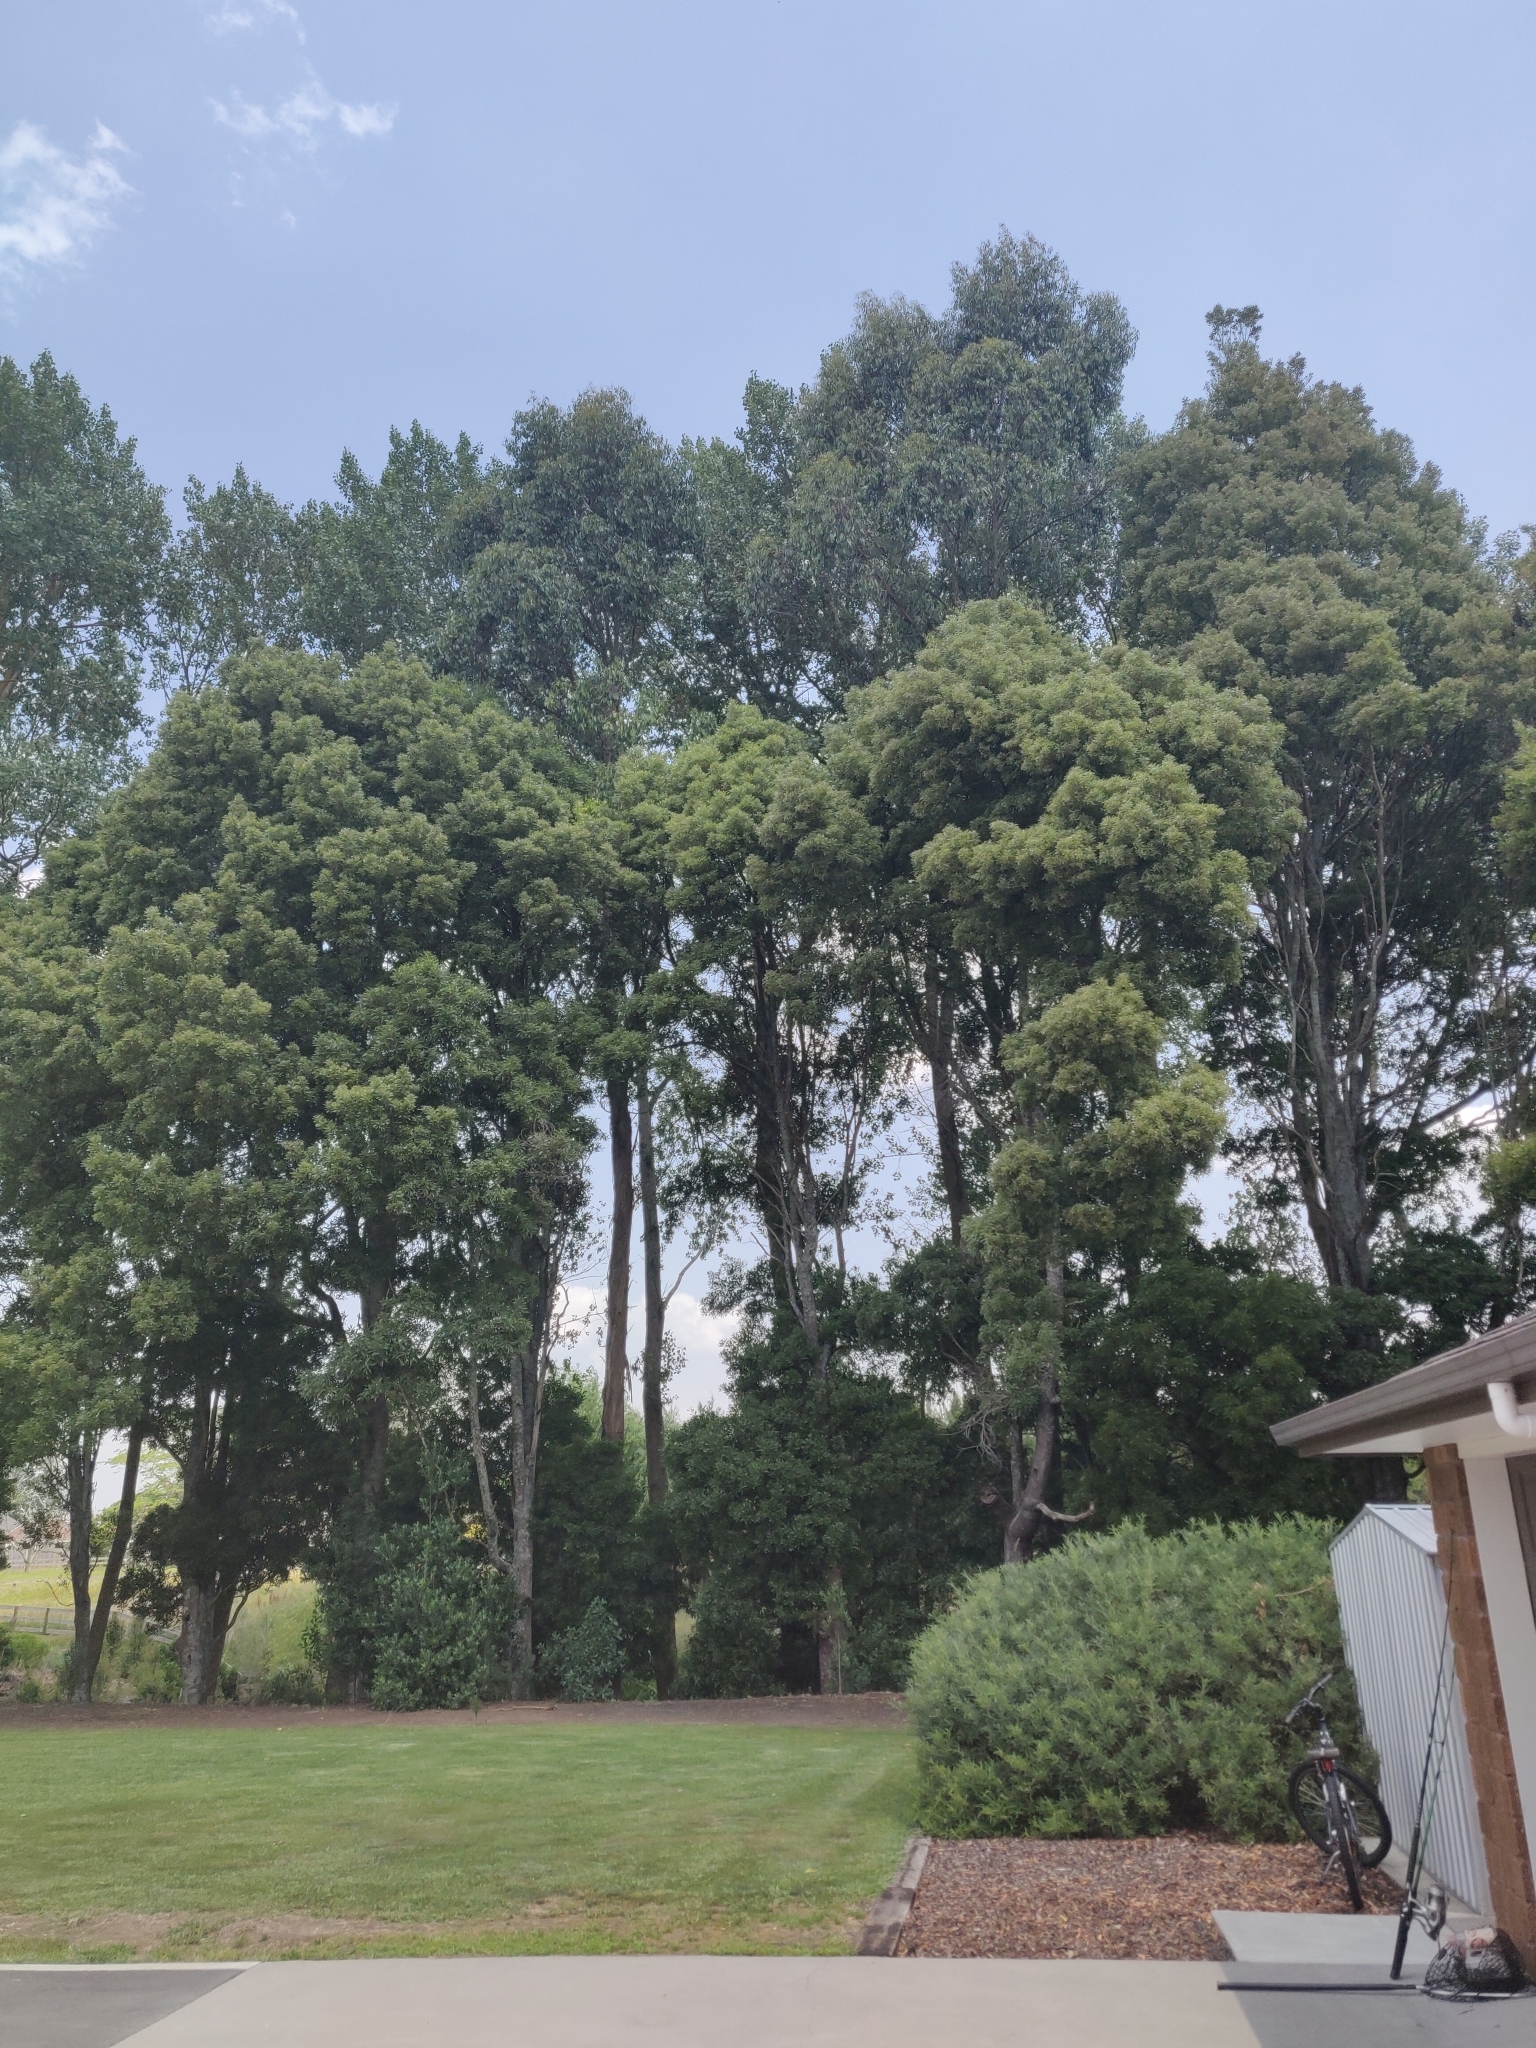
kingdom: Plantae
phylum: Tracheophyta
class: Magnoliopsida
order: Fabales
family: Fabaceae
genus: Acacia
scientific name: Acacia melanoxylon
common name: Blackwood
